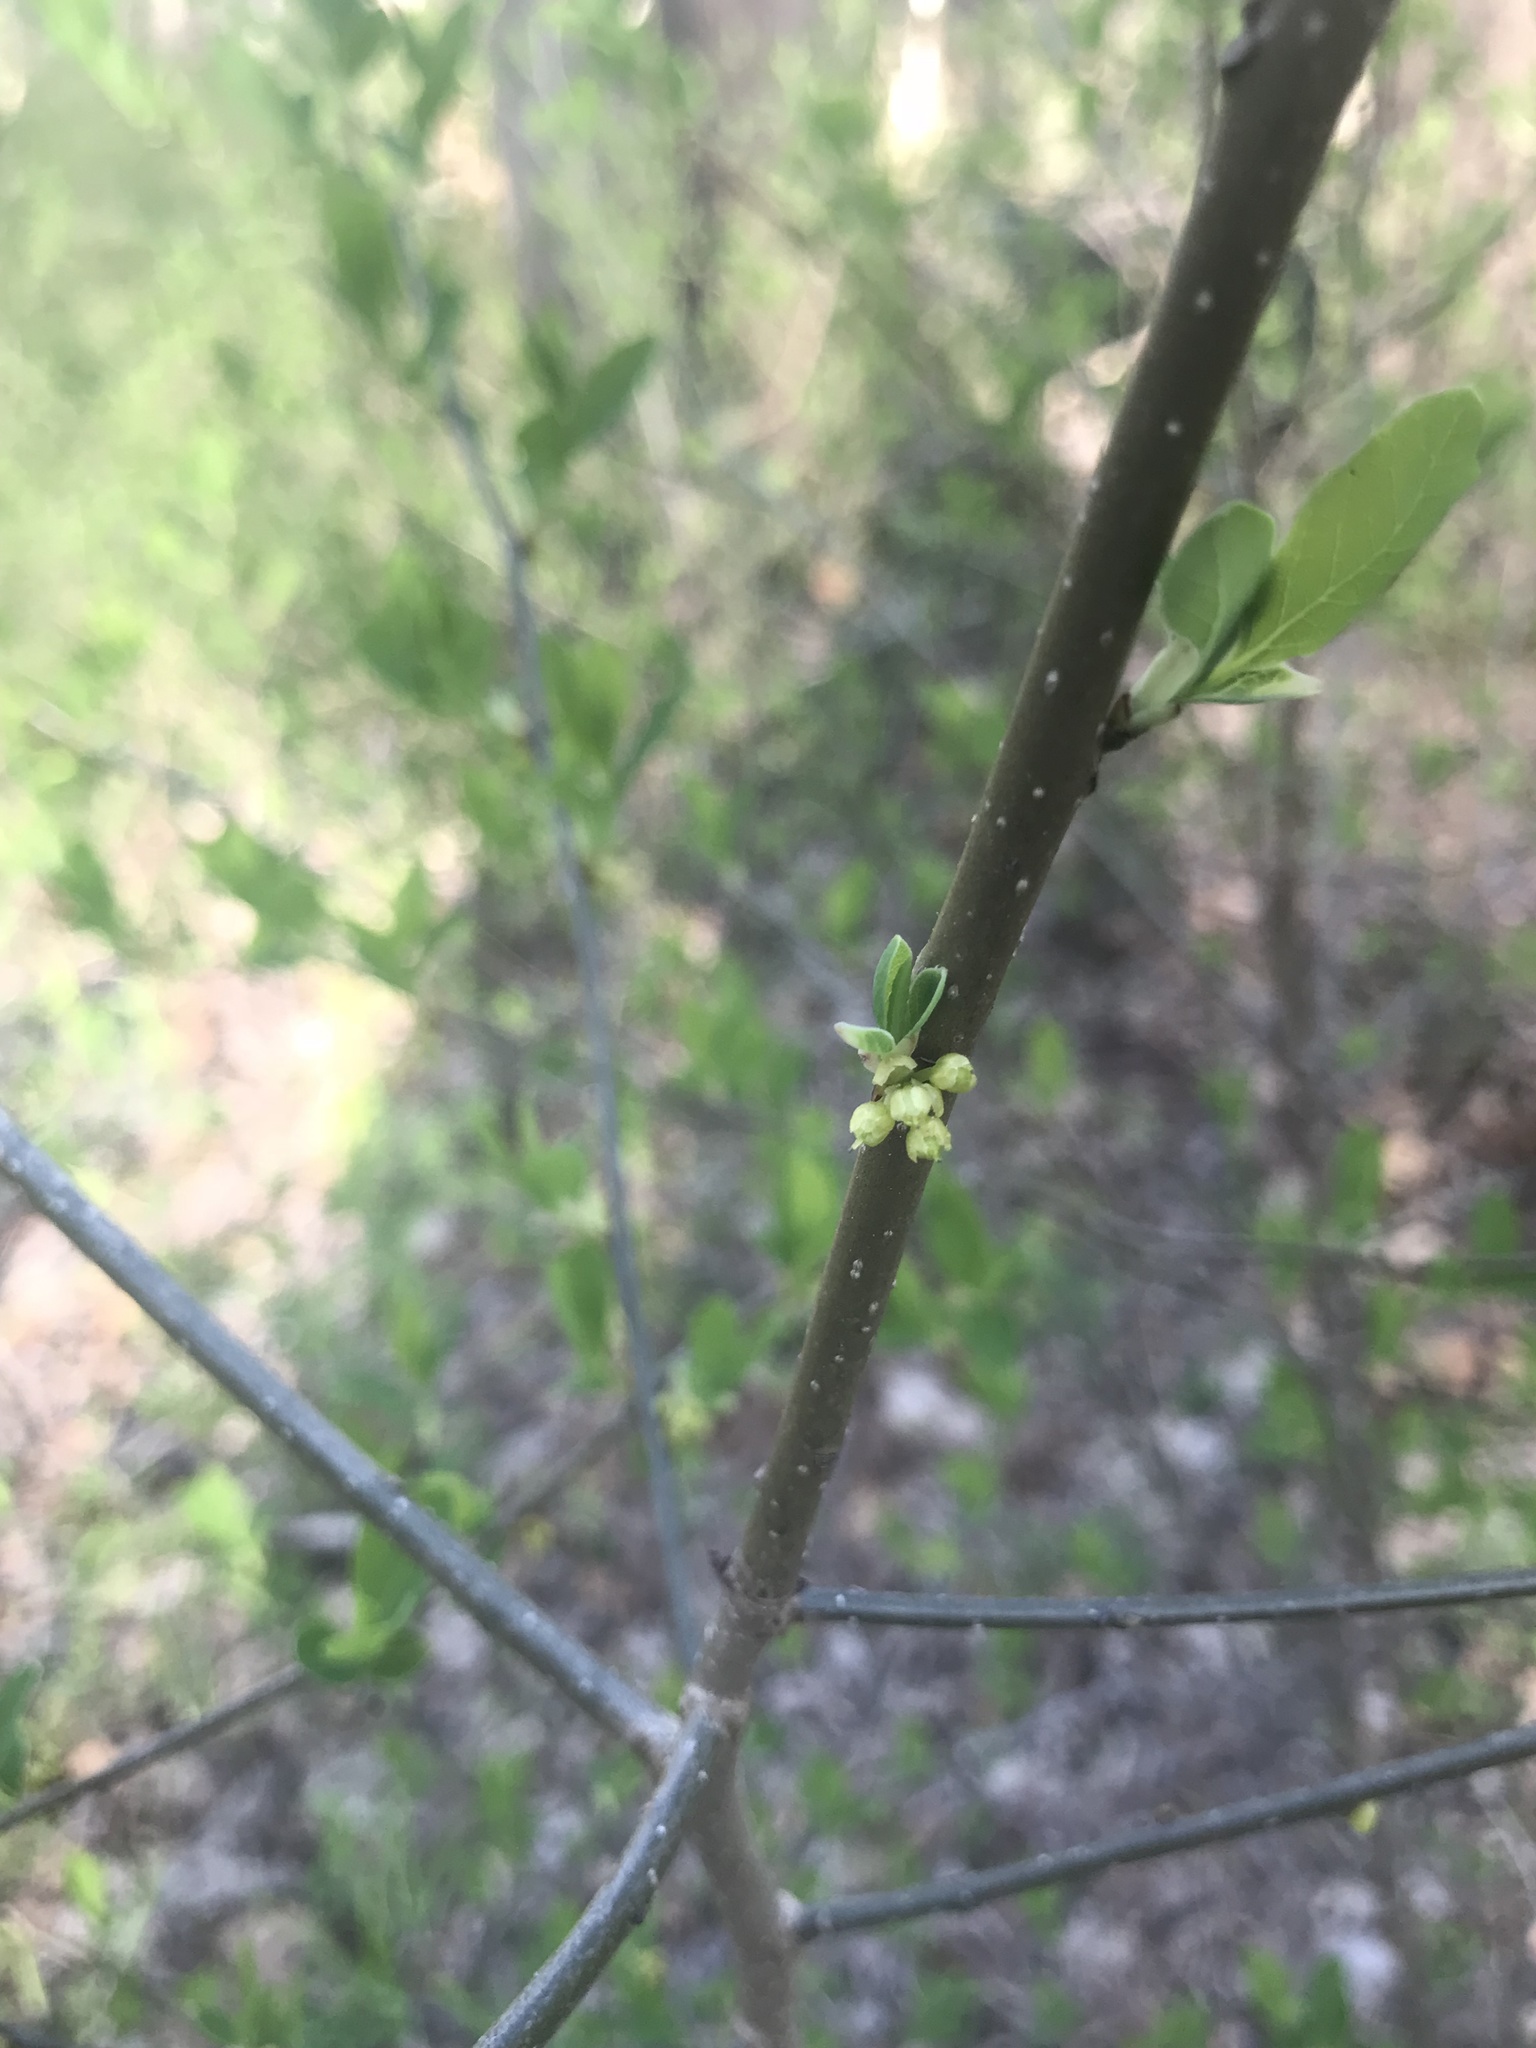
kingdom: Plantae
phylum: Tracheophyta
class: Magnoliopsida
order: Laurales
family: Lauraceae
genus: Lindera
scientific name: Lindera benzoin
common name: Spicebush
